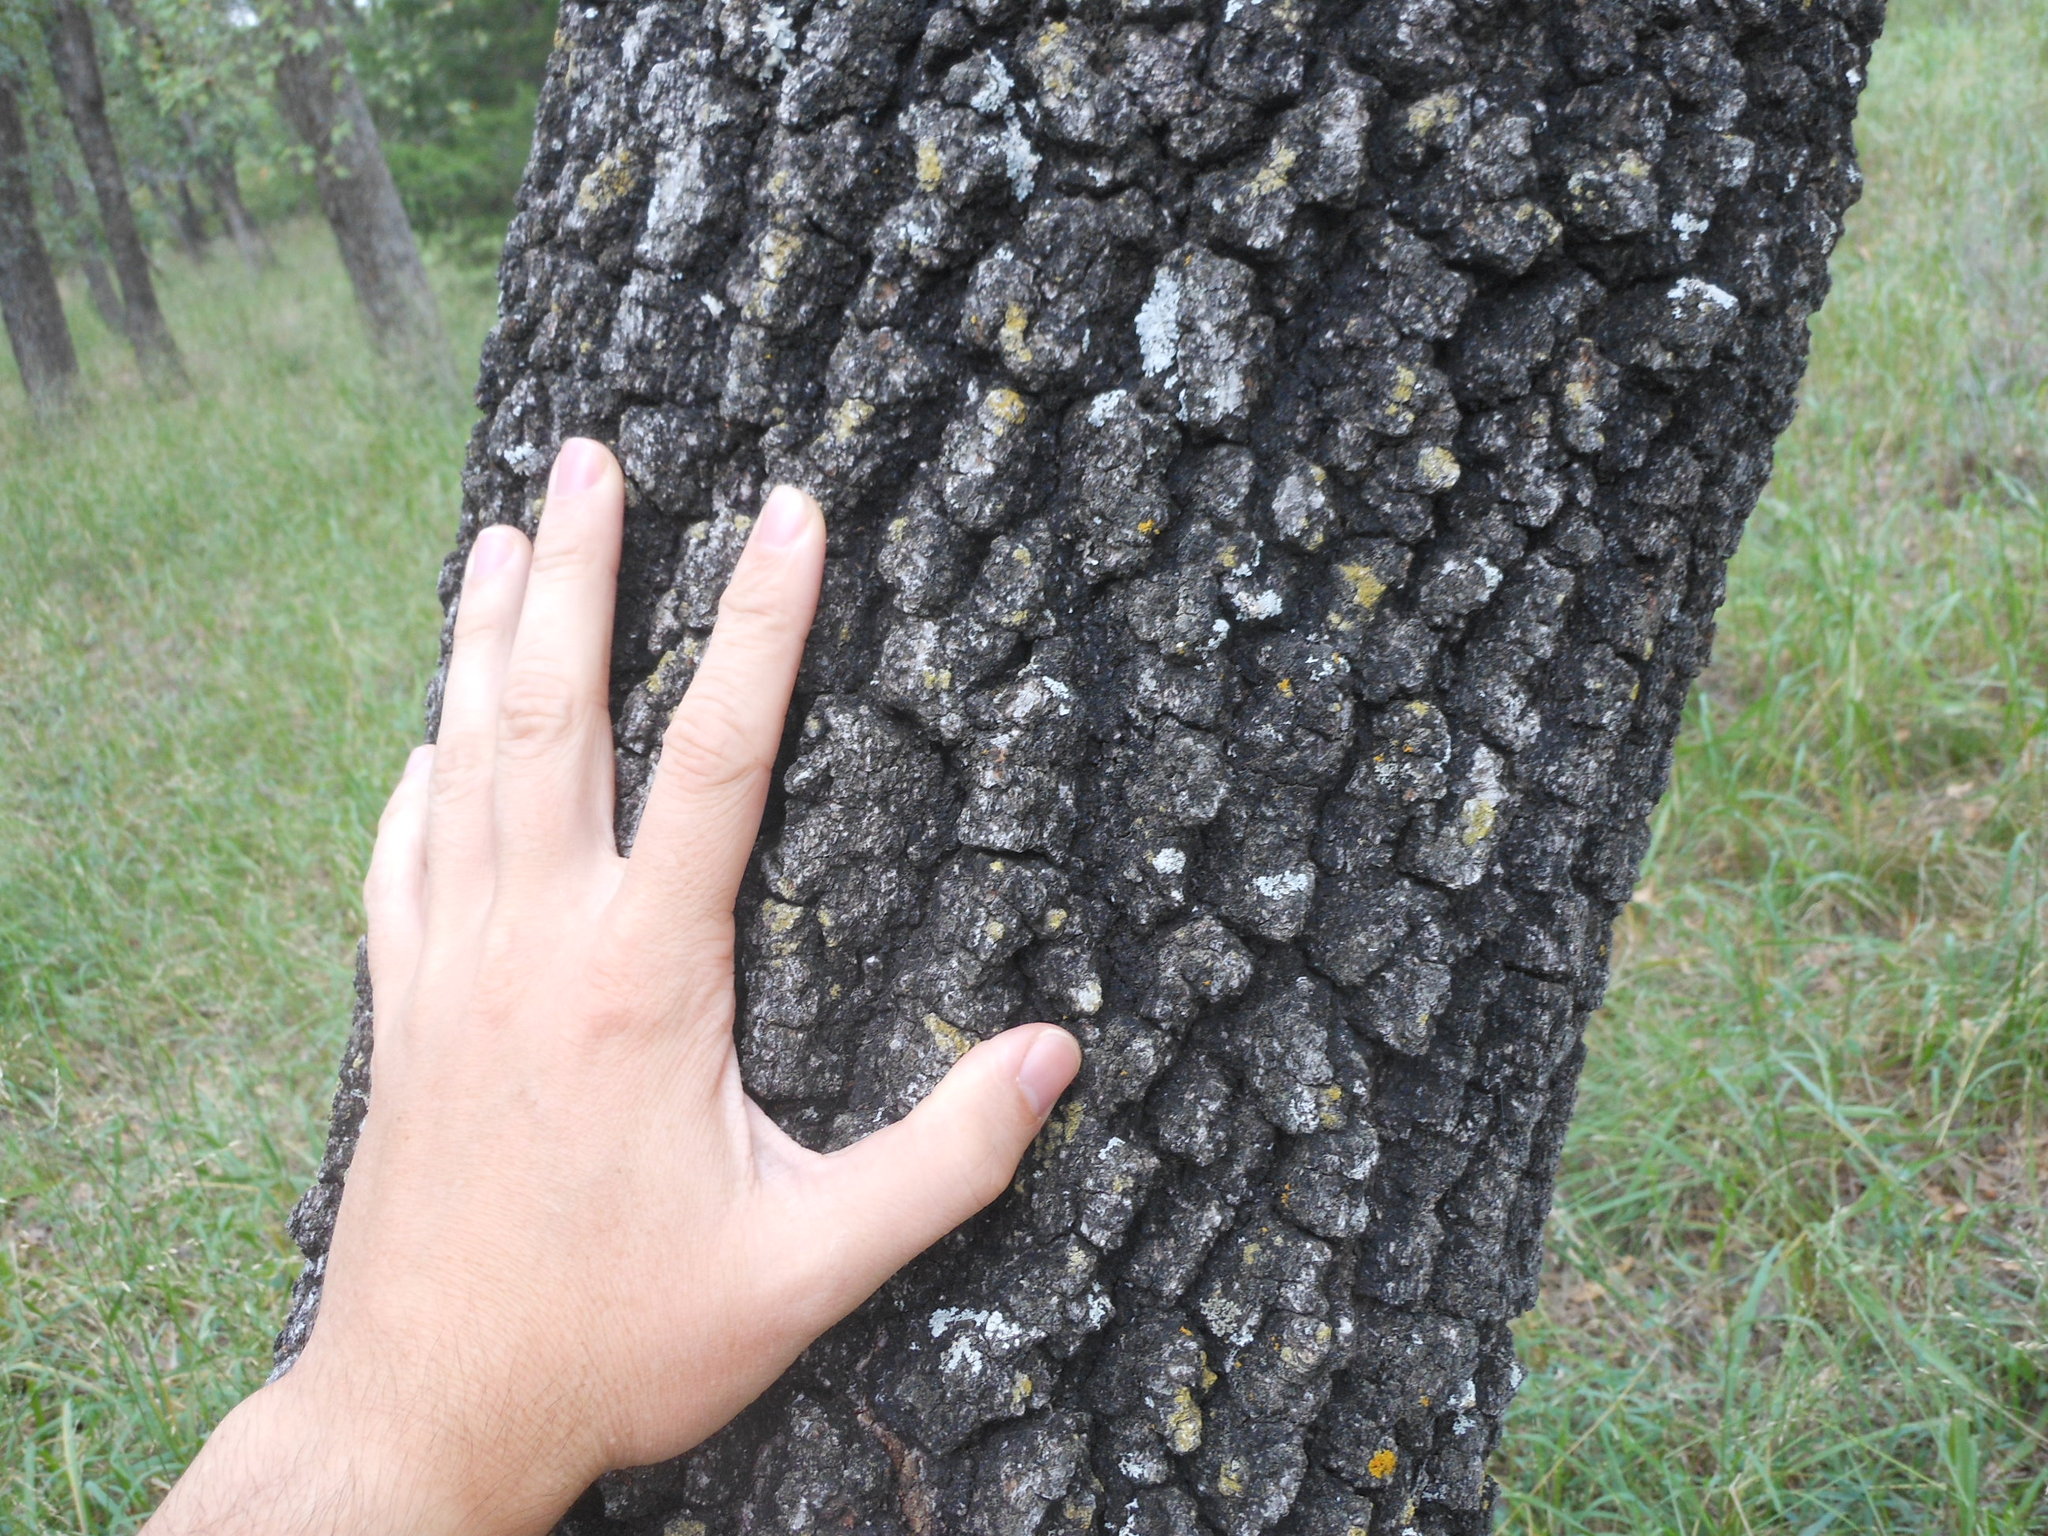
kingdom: Plantae
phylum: Tracheophyta
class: Magnoliopsida
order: Fagales
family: Fagaceae
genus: Quercus
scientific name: Quercus marilandica
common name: Blackjack oak
